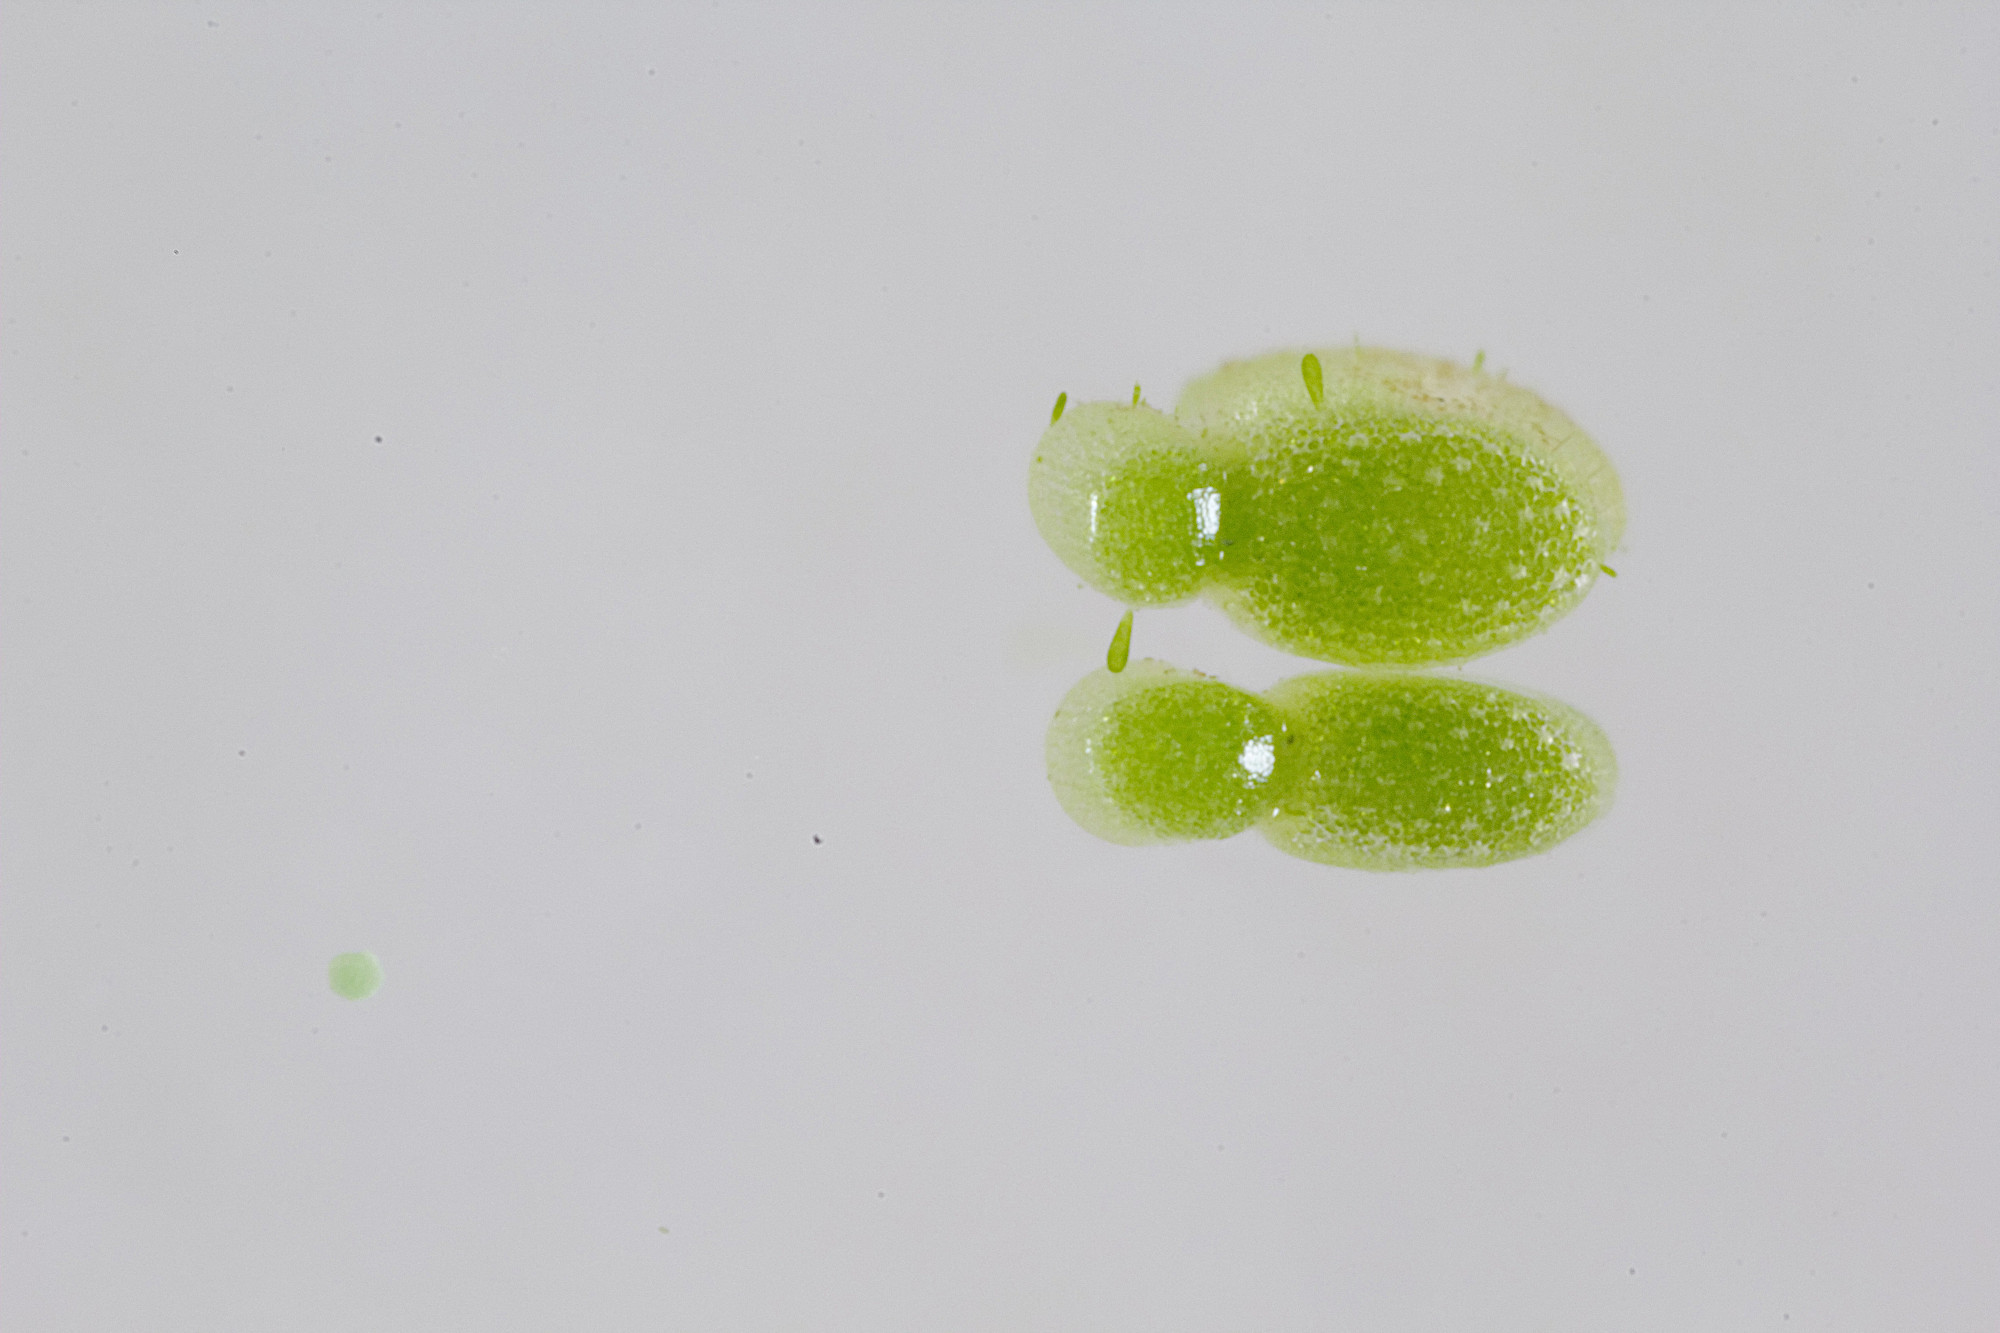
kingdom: Plantae
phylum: Tracheophyta
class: Liliopsida
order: Alismatales
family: Araceae
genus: Wolffia
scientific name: Wolffia australiana
